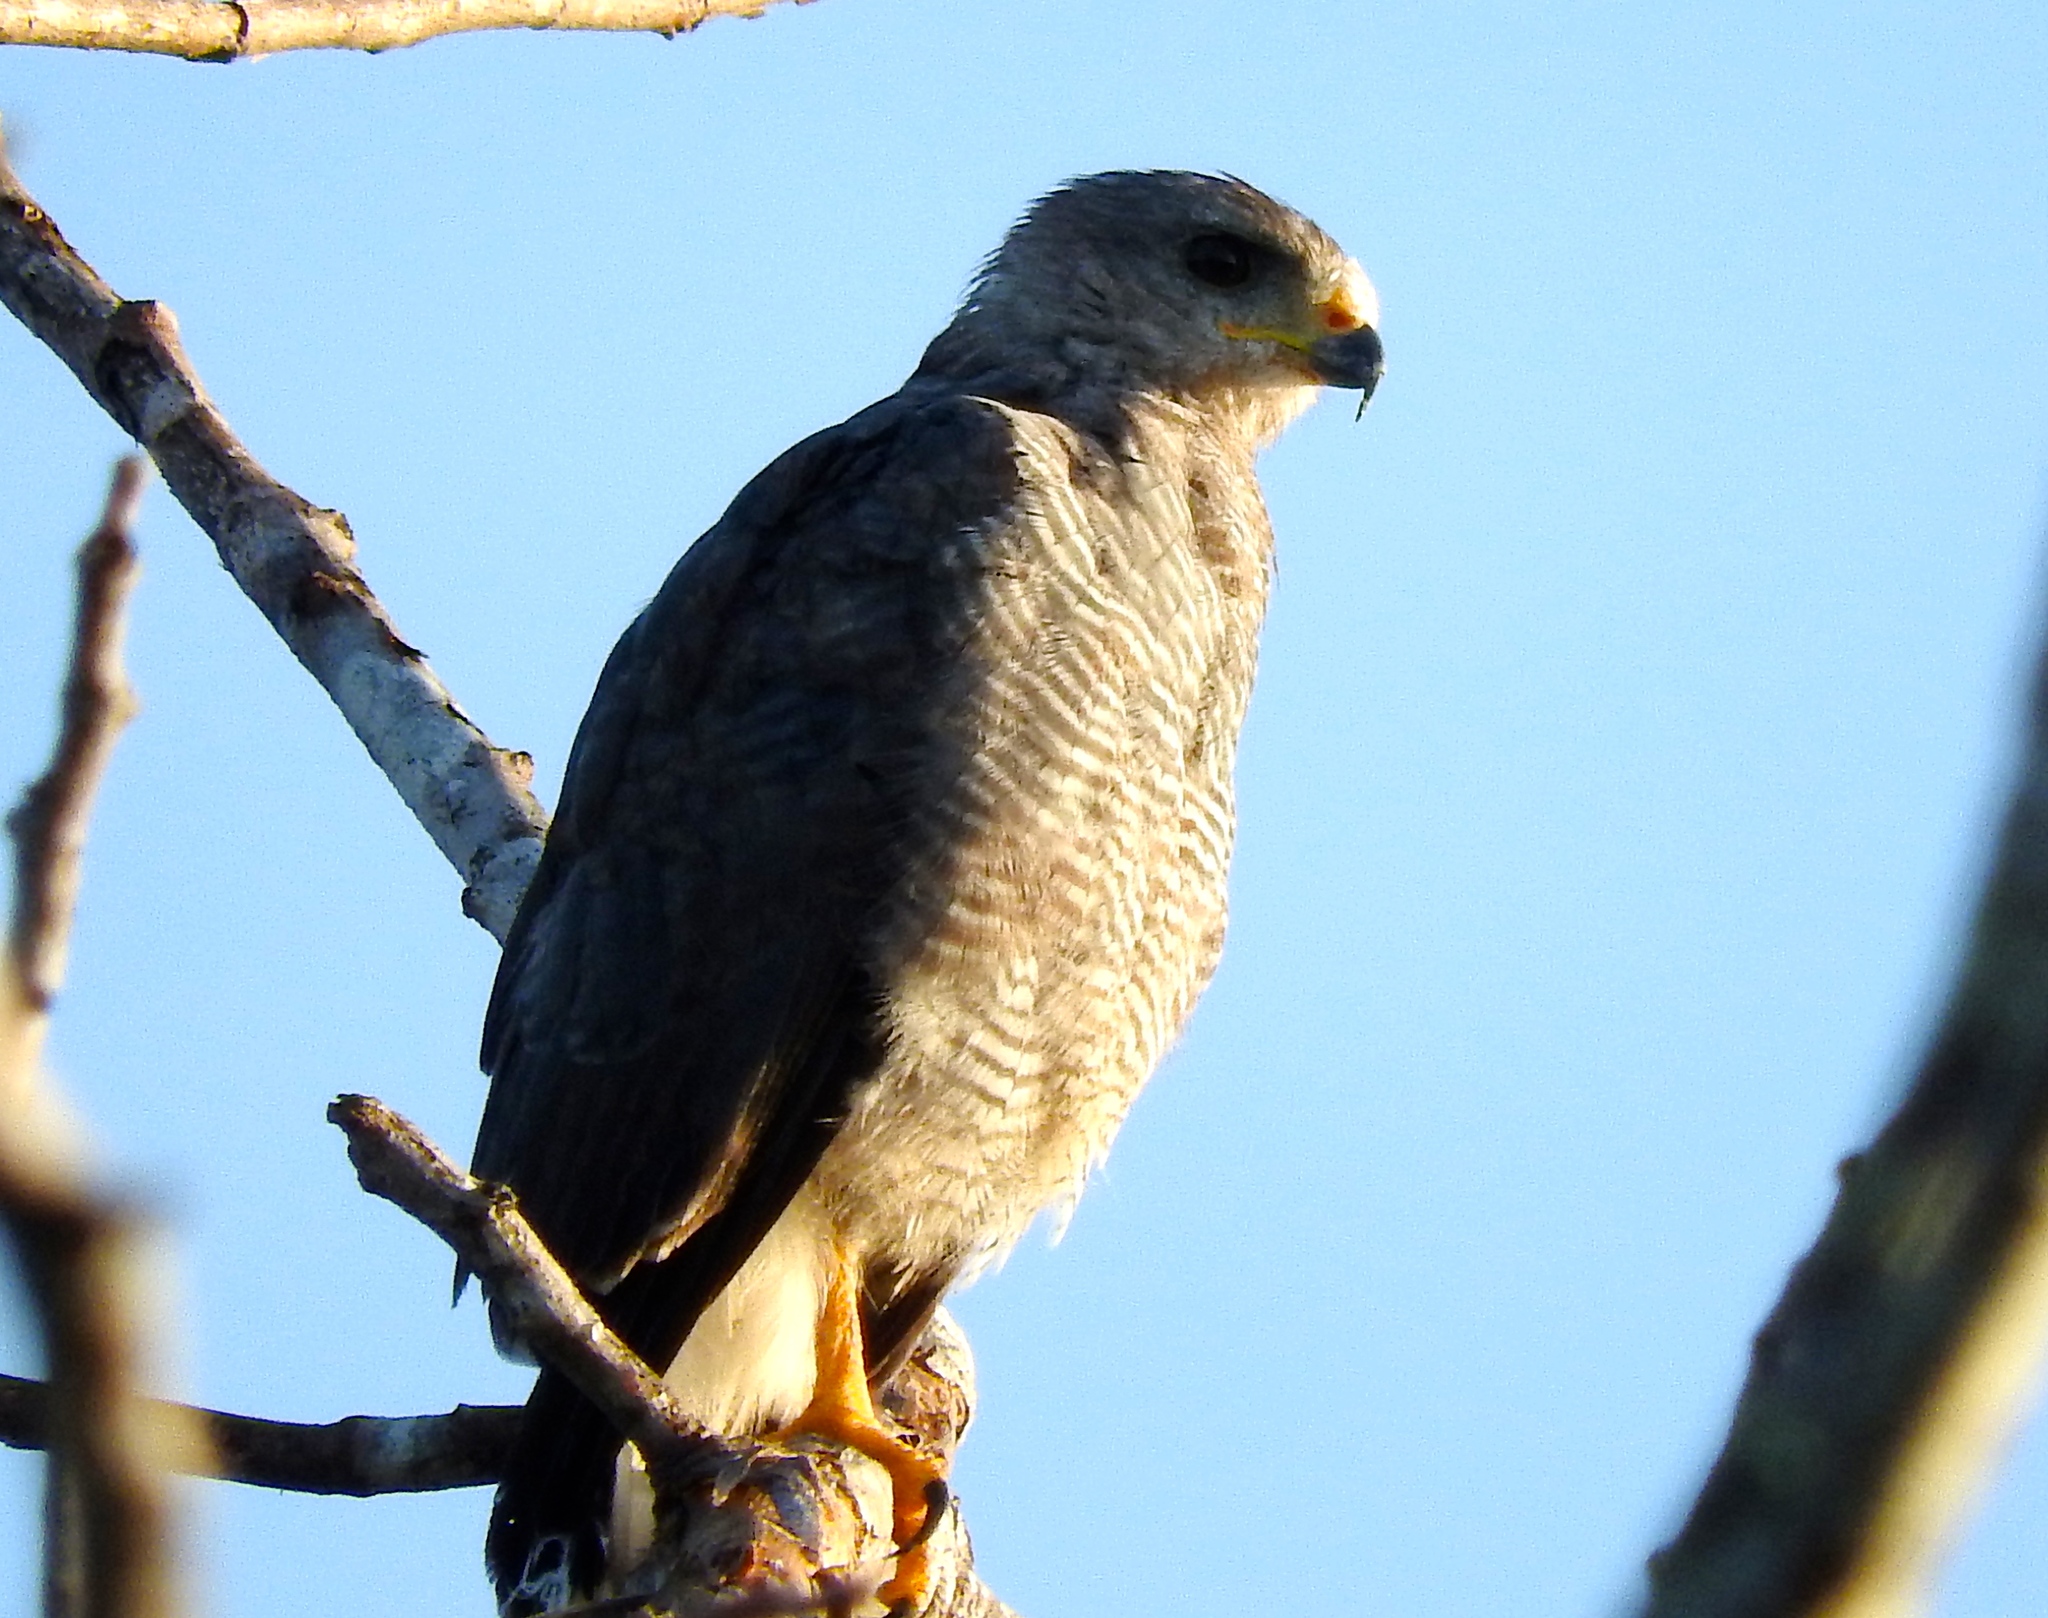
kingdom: Animalia
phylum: Chordata
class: Aves
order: Accipitriformes
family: Accipitridae
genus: Buteo
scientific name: Buteo nitidus
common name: Grey-lined hawk
